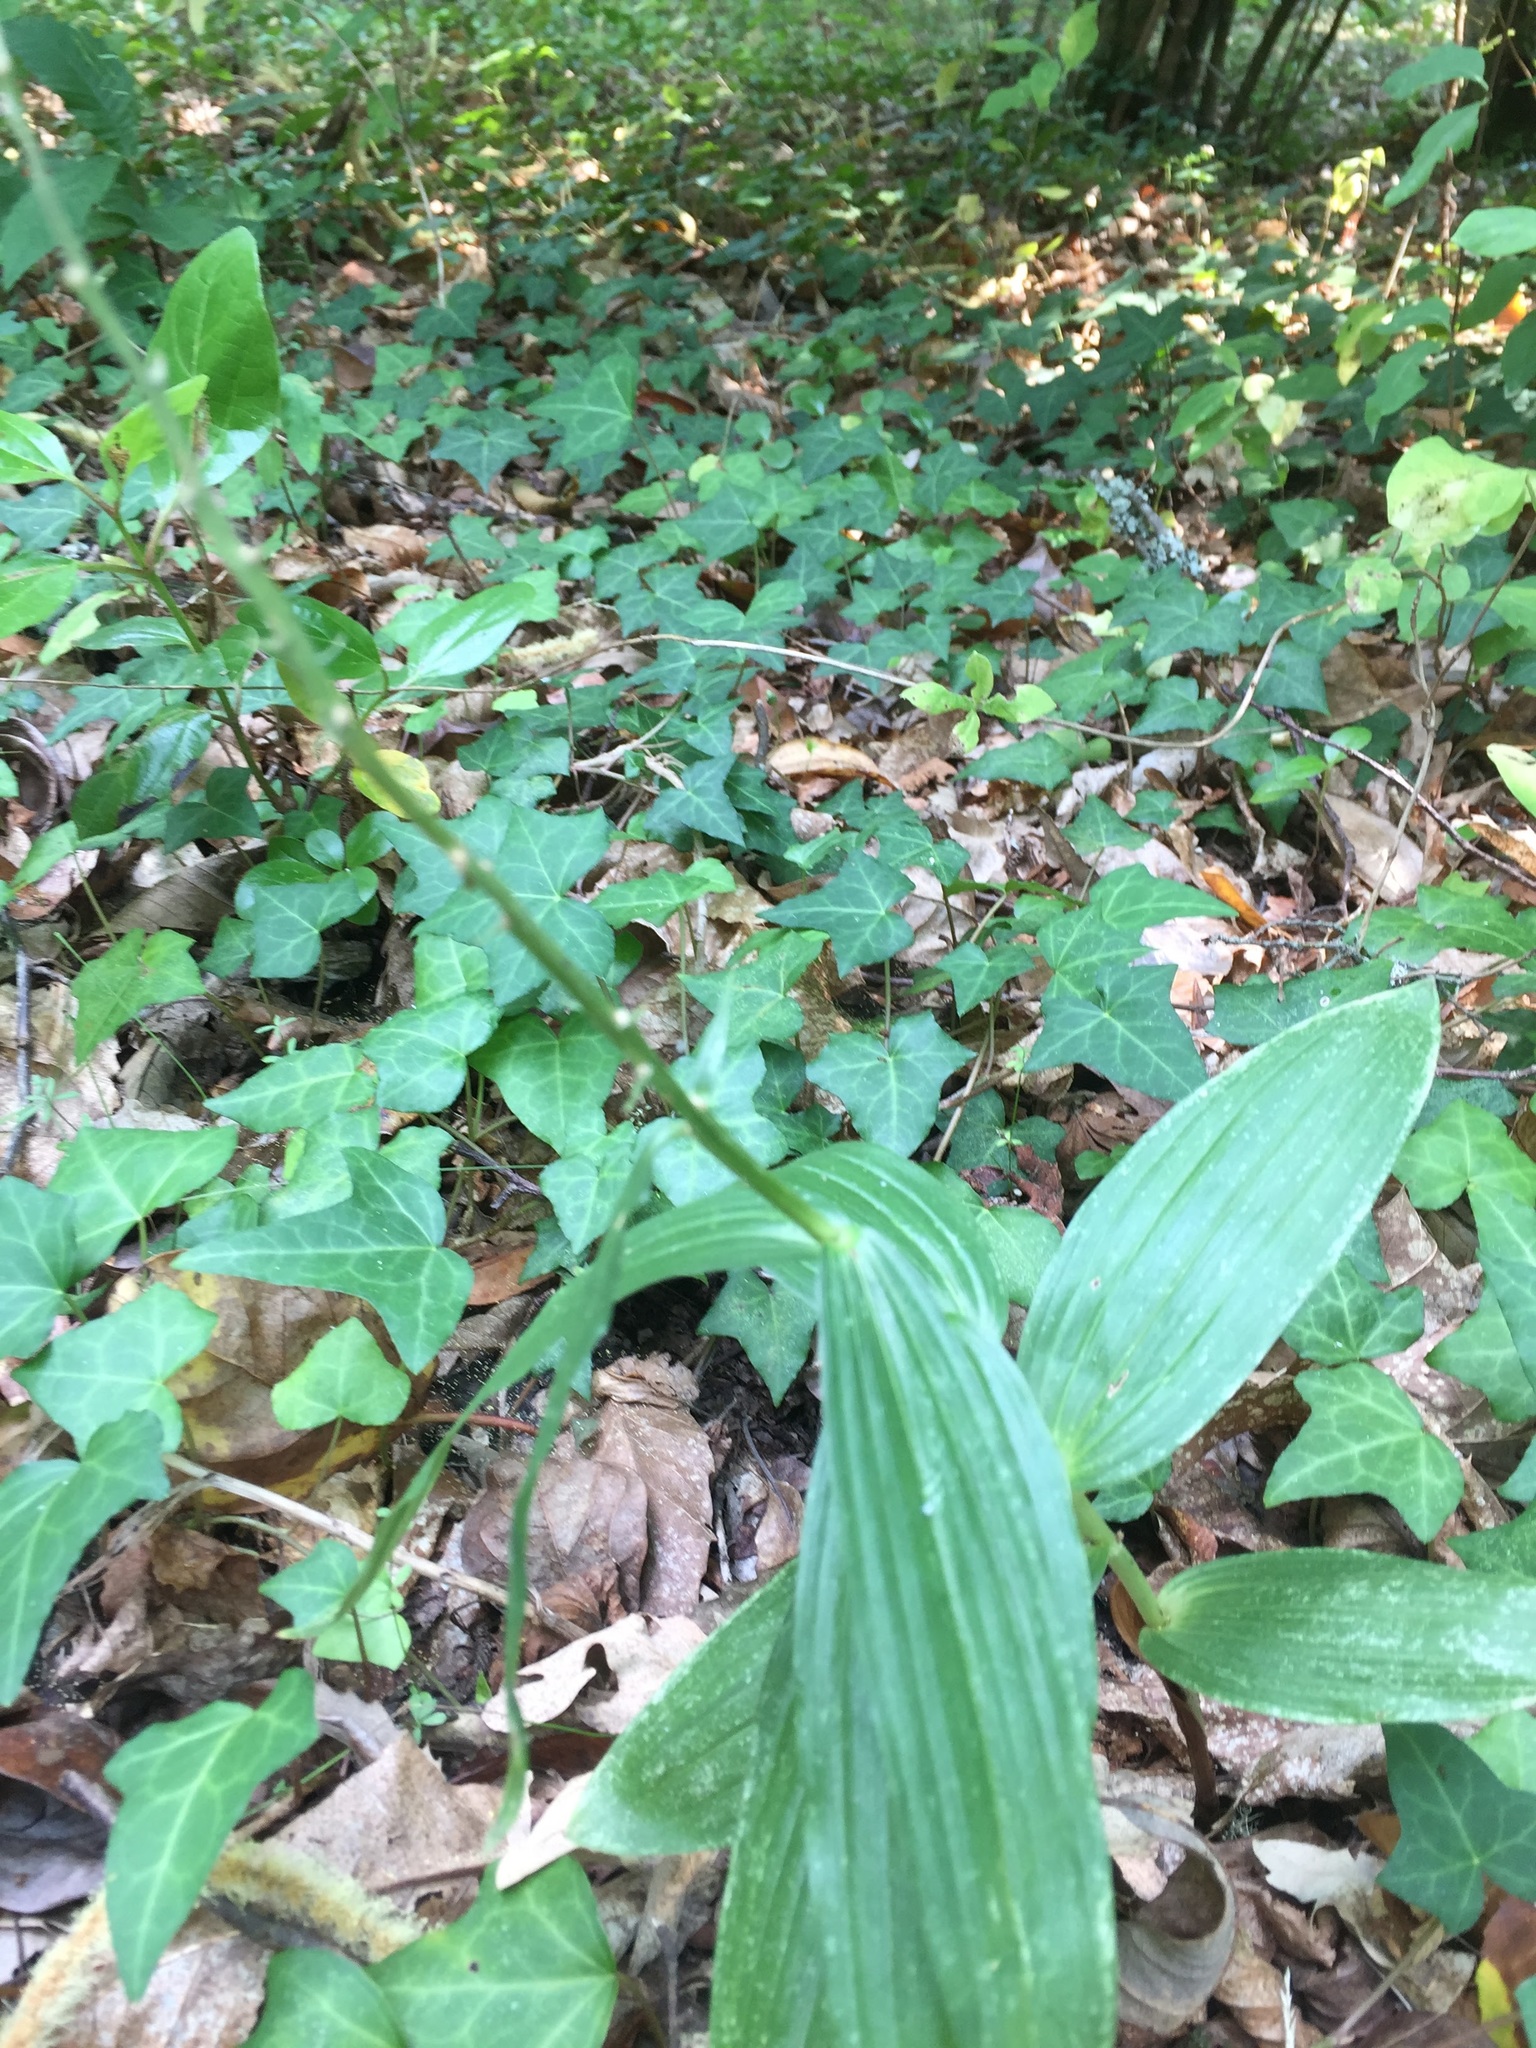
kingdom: Plantae
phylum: Tracheophyta
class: Liliopsida
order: Asparagales
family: Orchidaceae
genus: Epipactis
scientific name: Epipactis helleborine
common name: Broad-leaved helleborine
